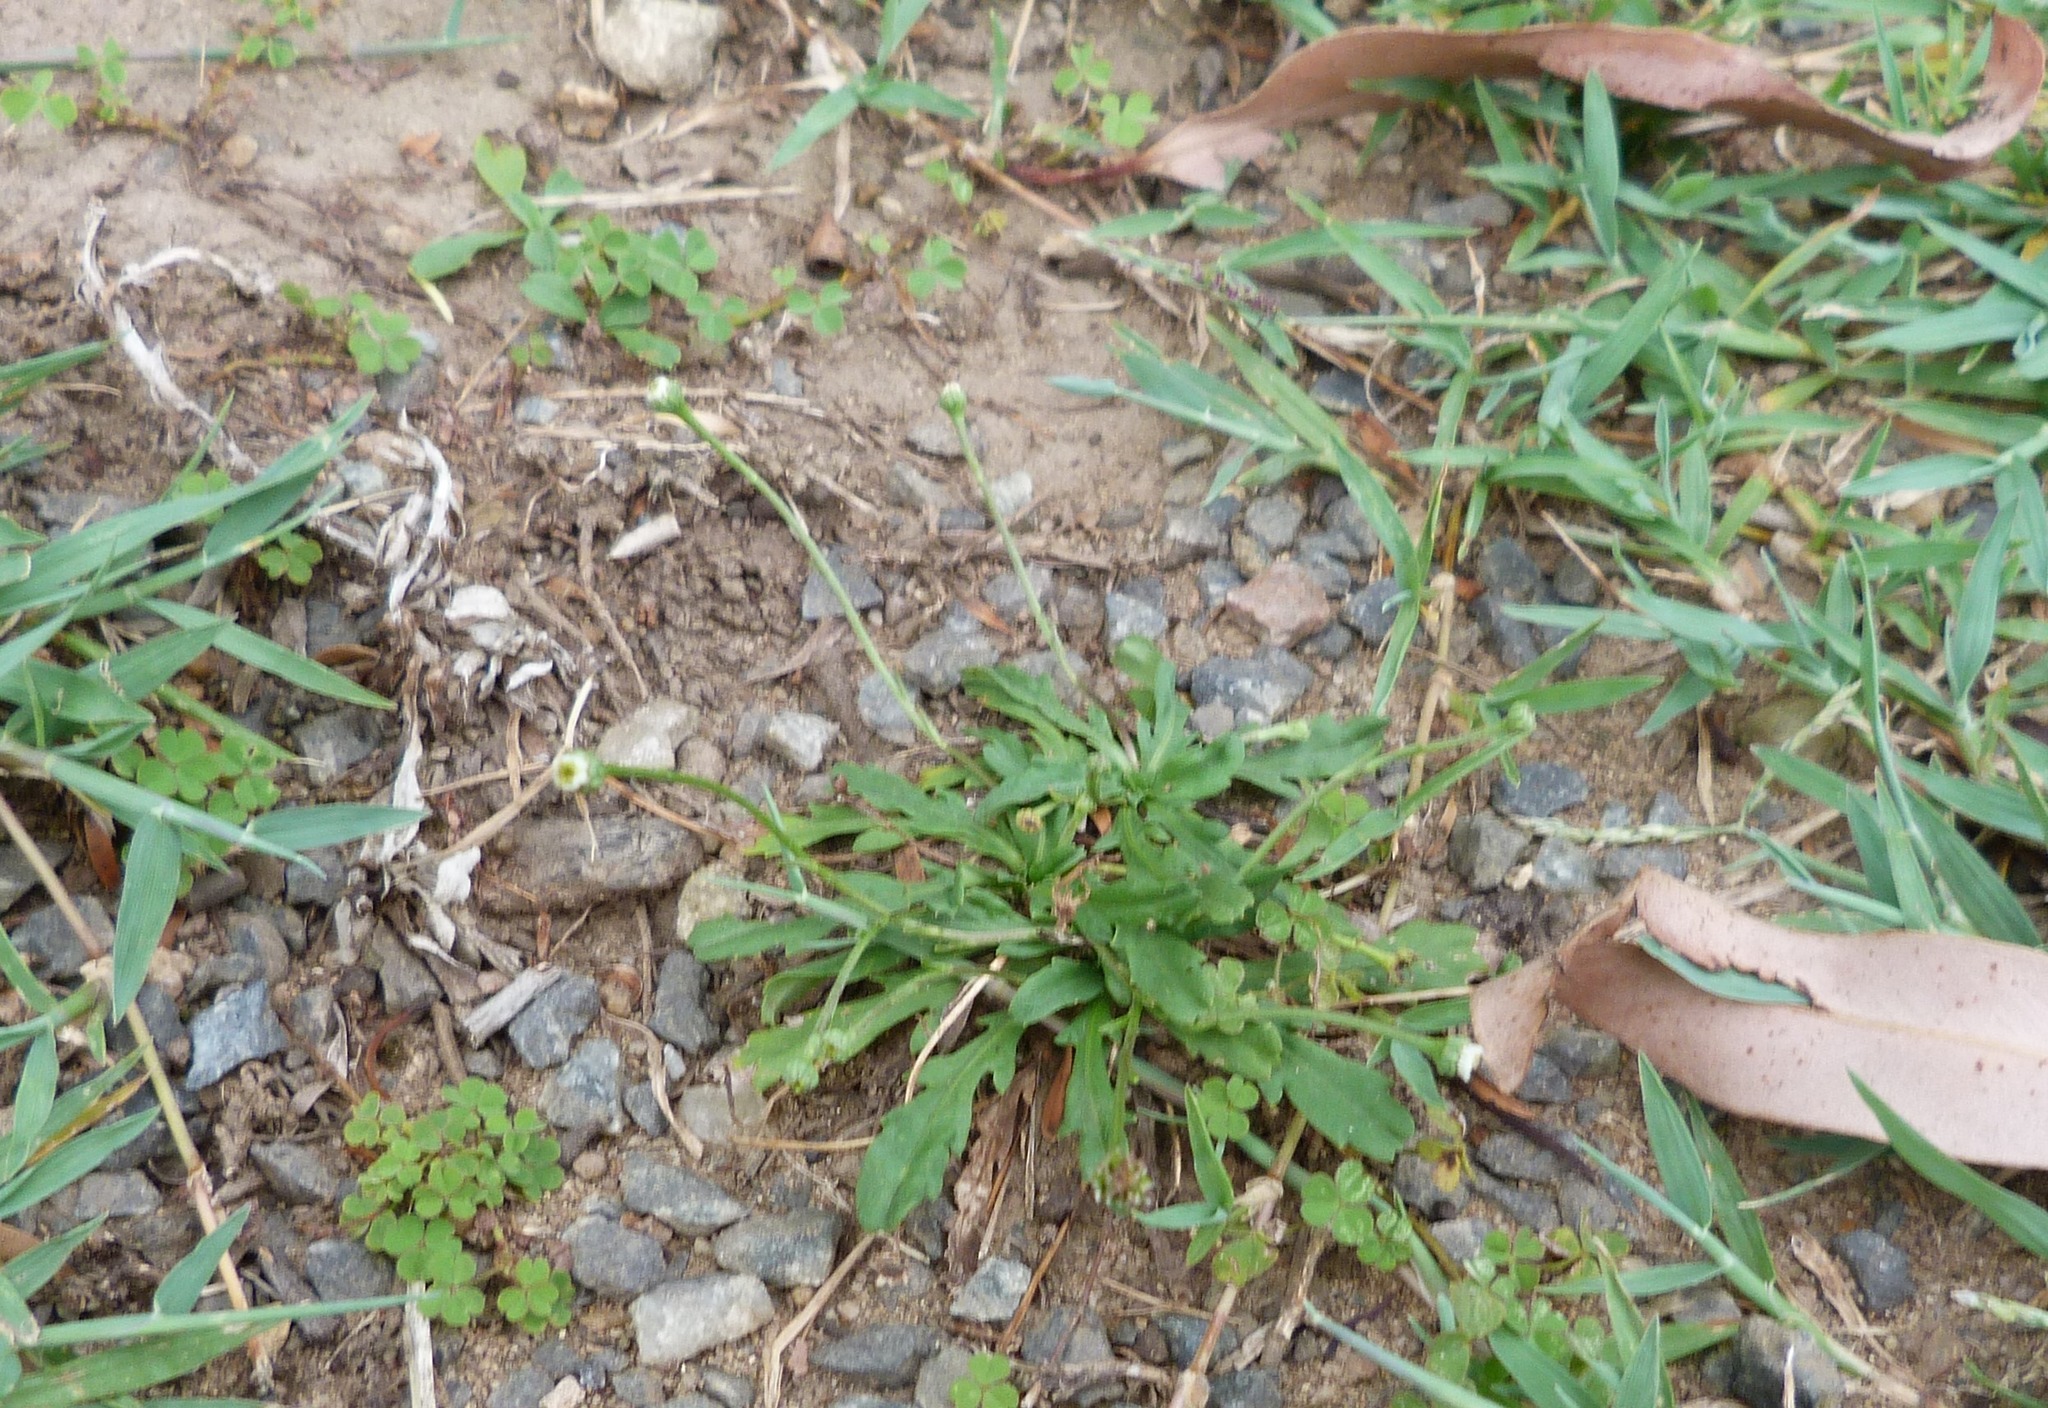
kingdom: Plantae
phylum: Tracheophyta
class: Magnoliopsida
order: Asterales
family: Asteraceae
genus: Solenogyne
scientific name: Solenogyne bellioides
